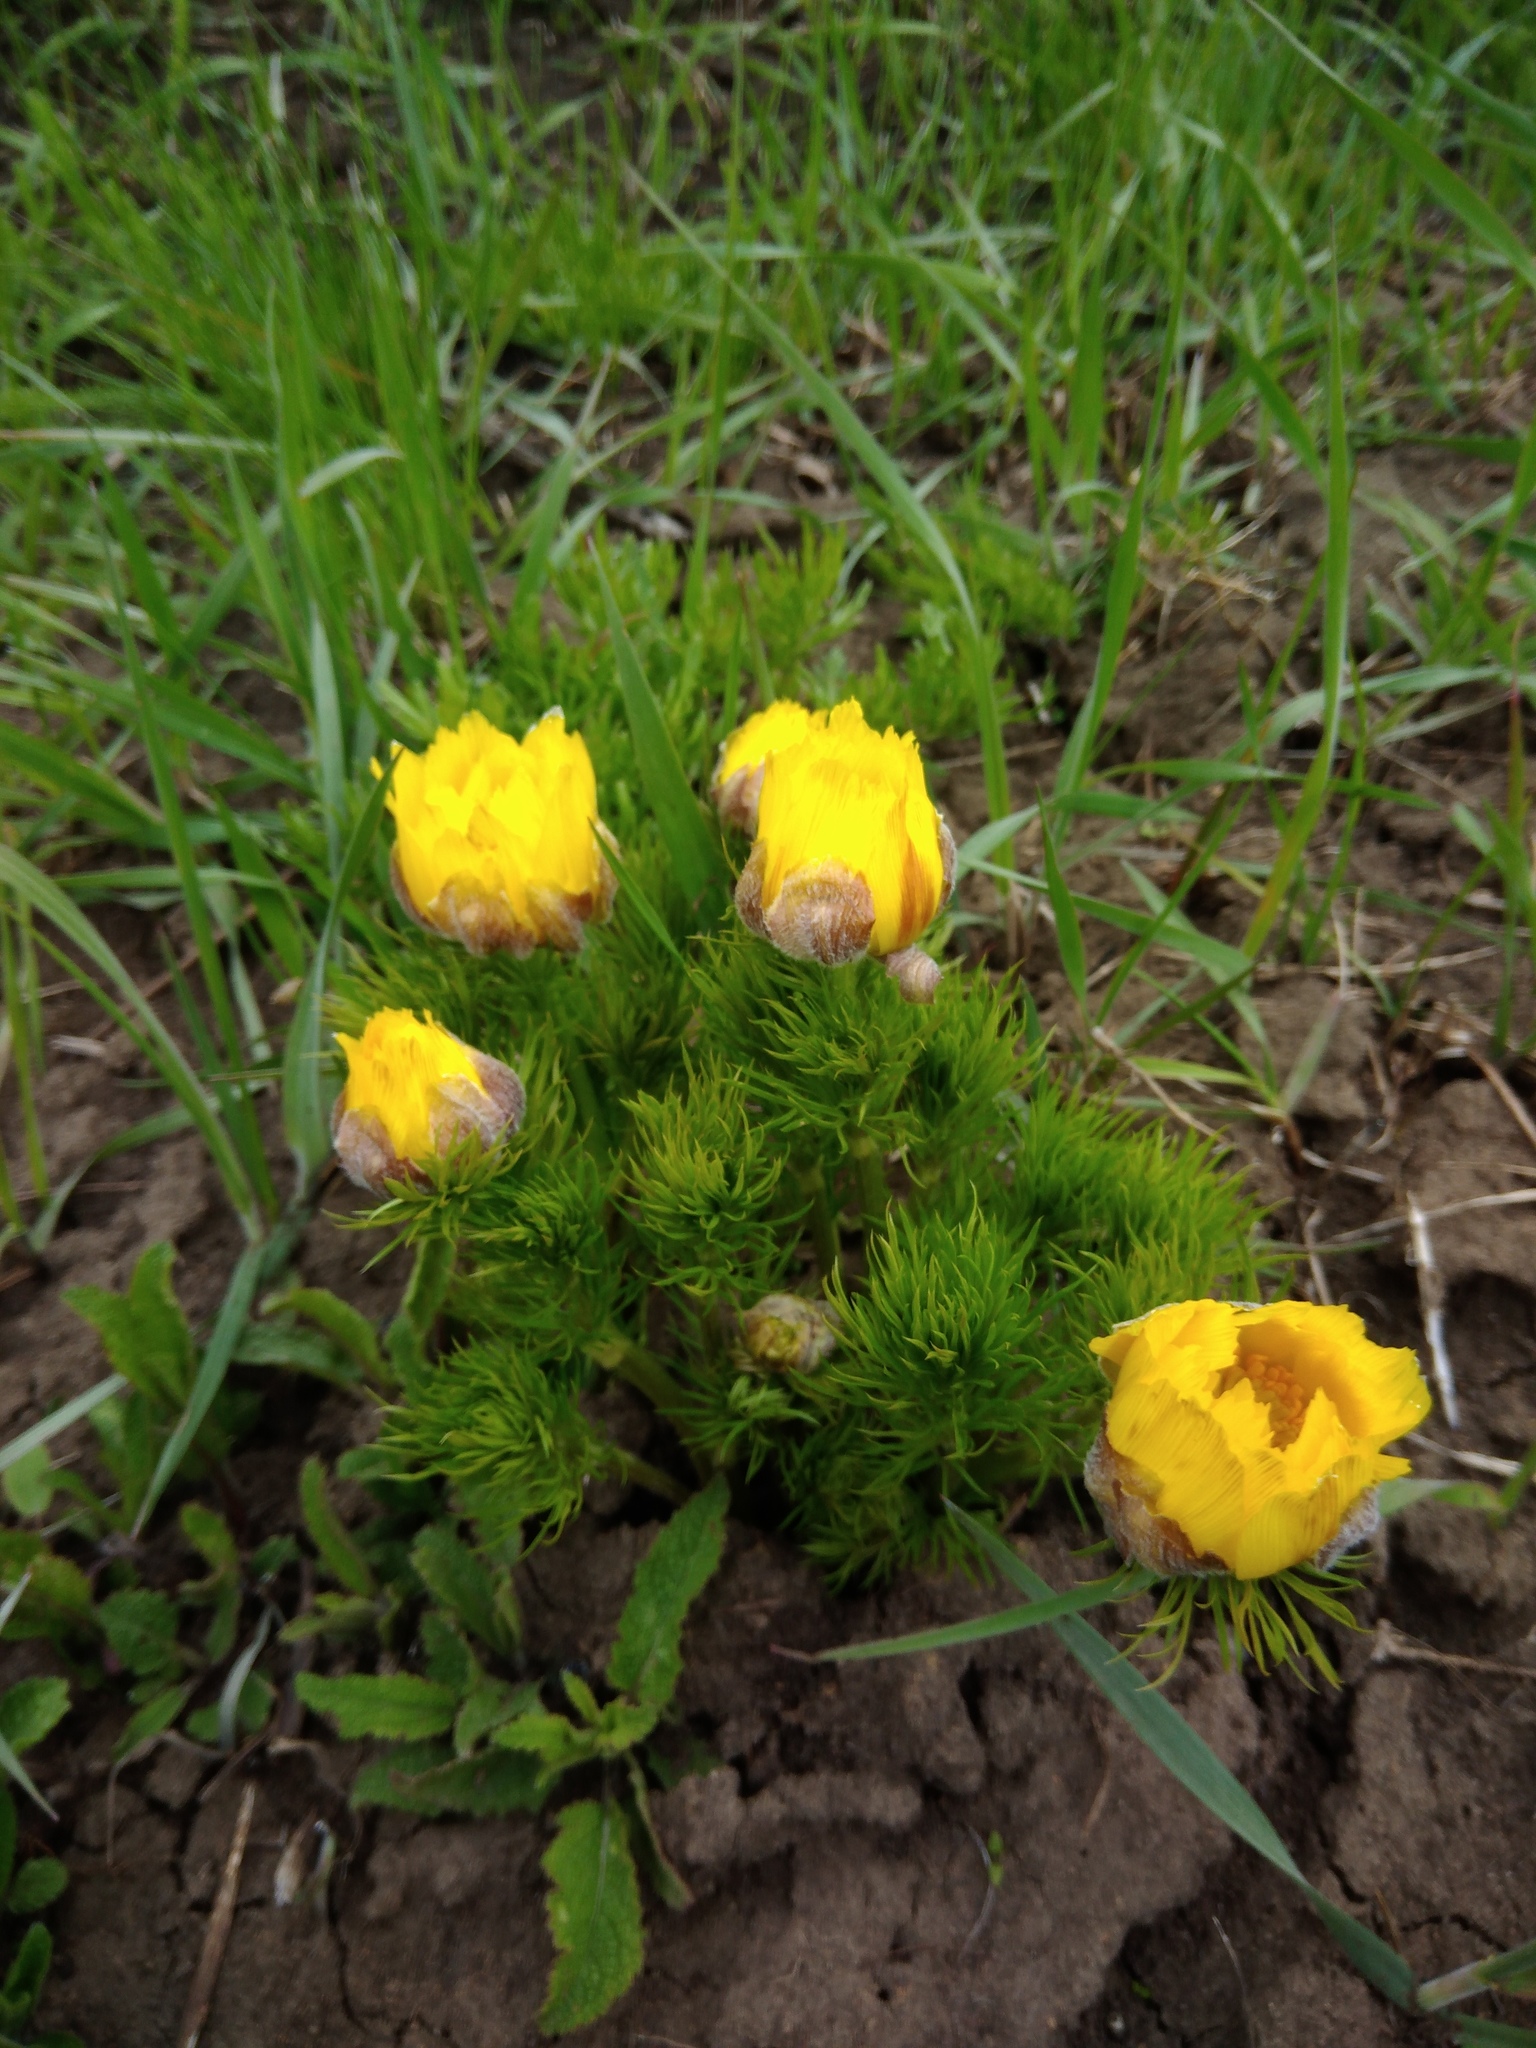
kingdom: Plantae
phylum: Tracheophyta
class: Magnoliopsida
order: Ranunculales
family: Ranunculaceae
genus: Adonis
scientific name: Adonis vernalis
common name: Yellow pheasants-eye
